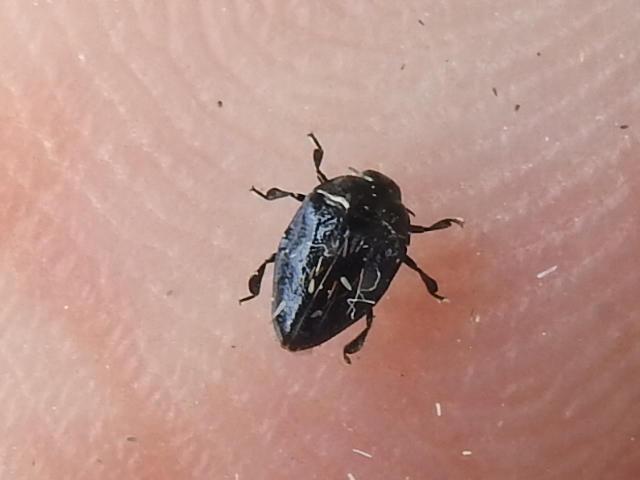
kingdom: Animalia
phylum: Arthropoda
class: Insecta
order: Coleoptera
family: Buprestidae
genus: Pachyschelus
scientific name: Pachyschelus laevigatus
